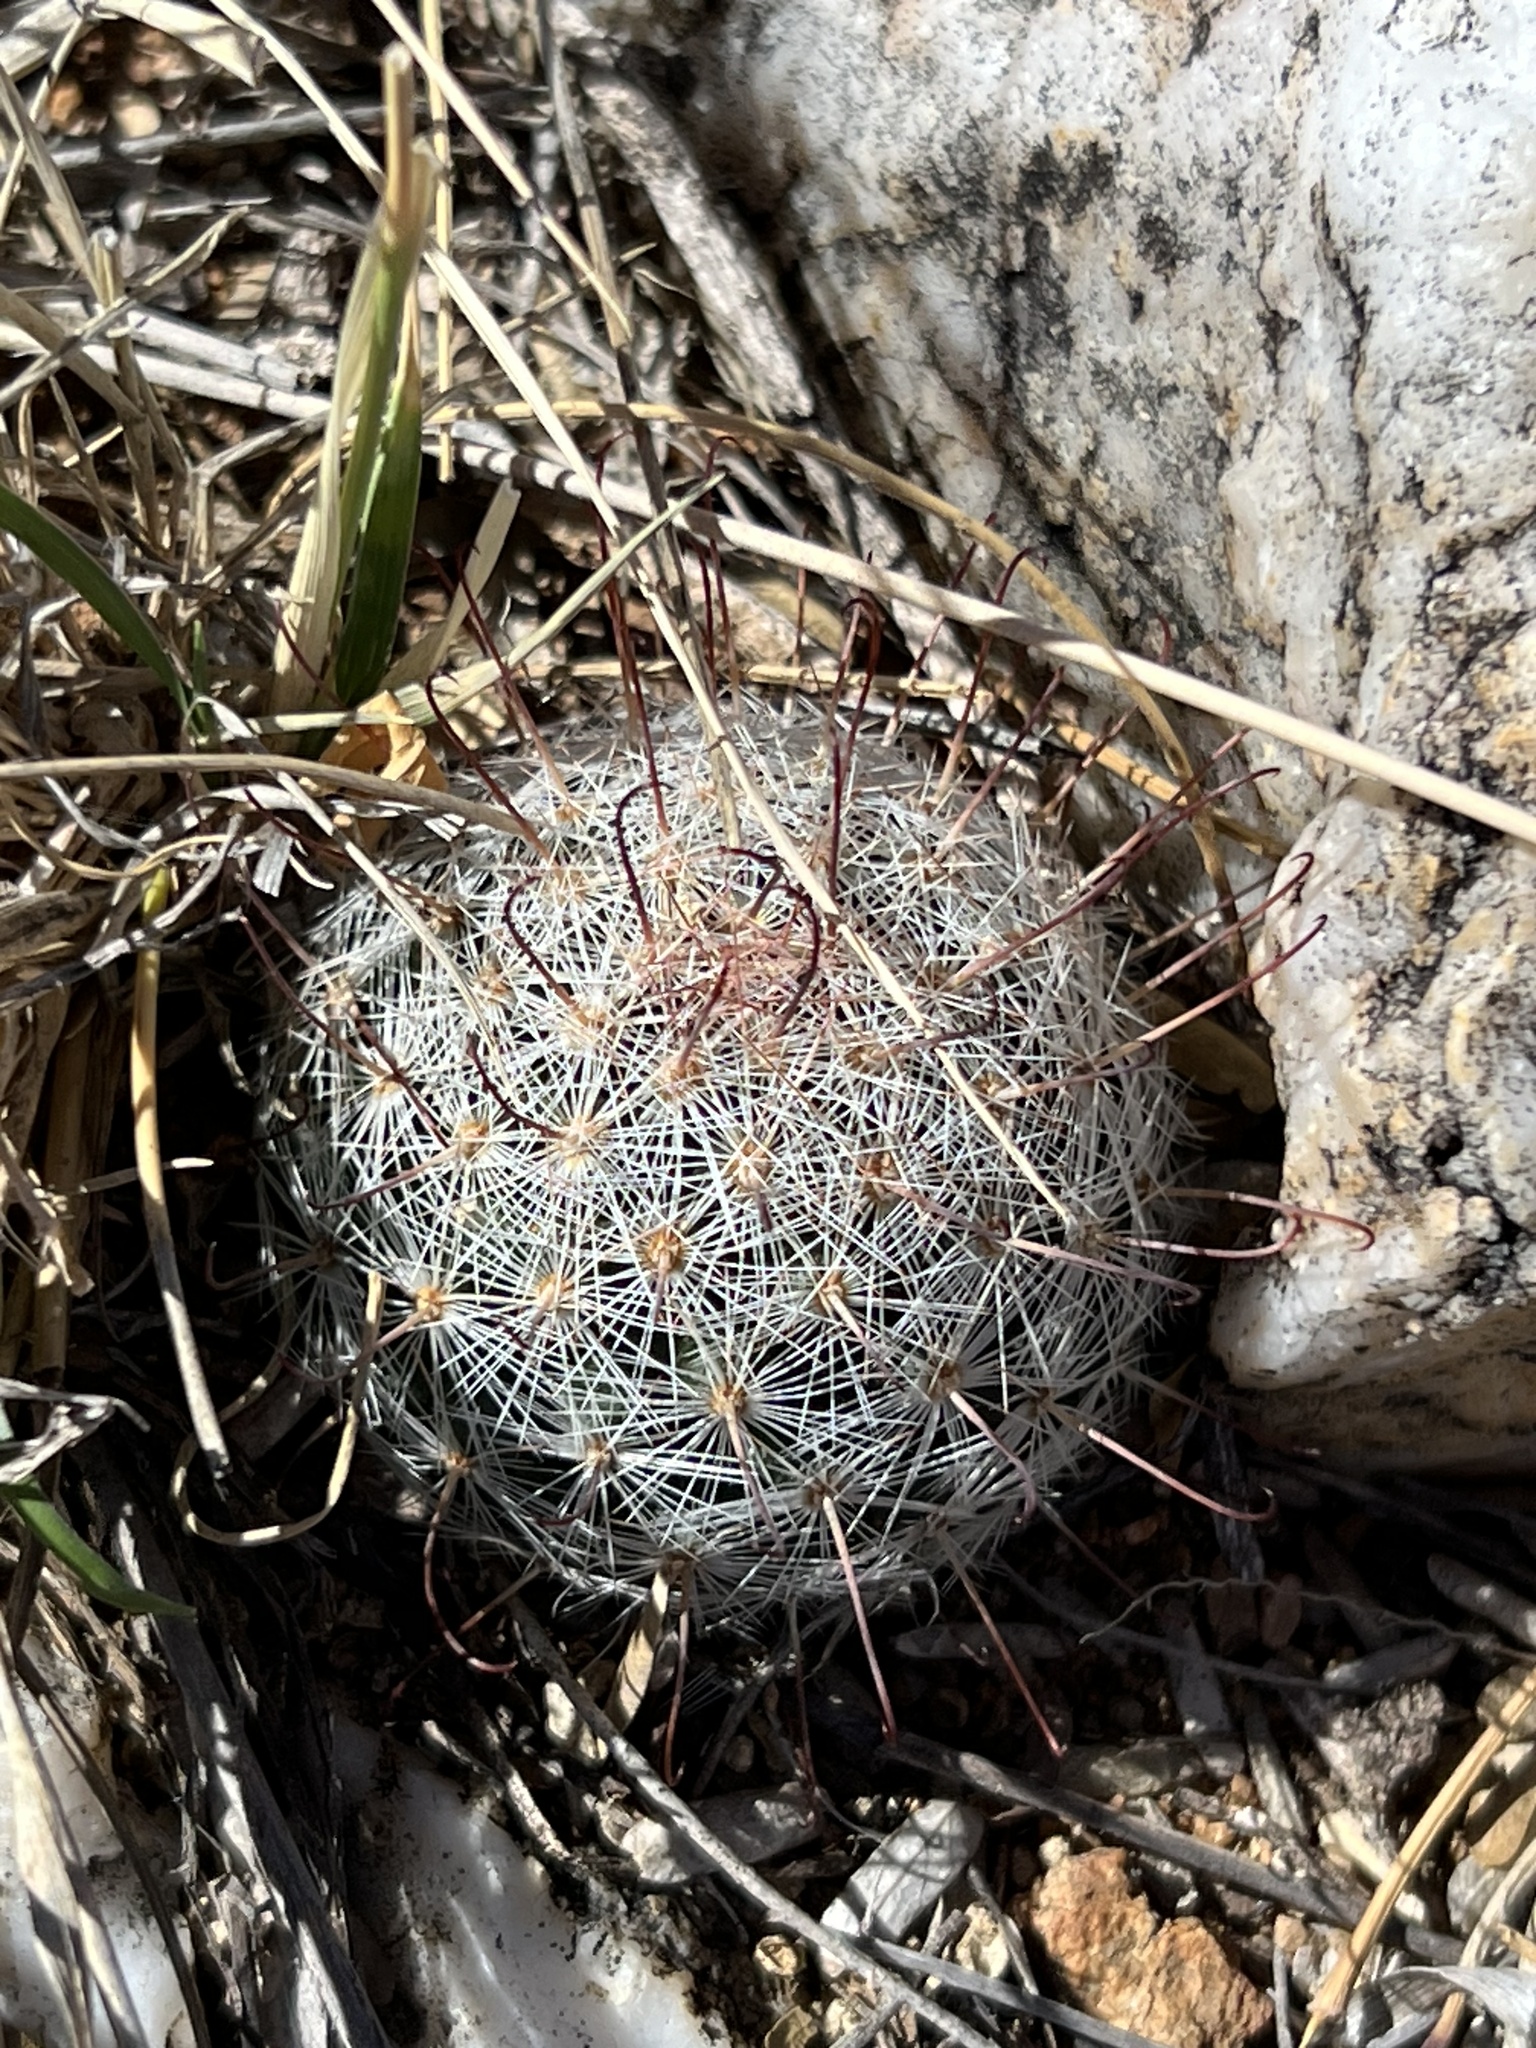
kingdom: Plantae
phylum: Tracheophyta
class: Magnoliopsida
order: Caryophyllales
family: Cactaceae
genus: Cochemiea
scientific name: Cochemiea grahamii
